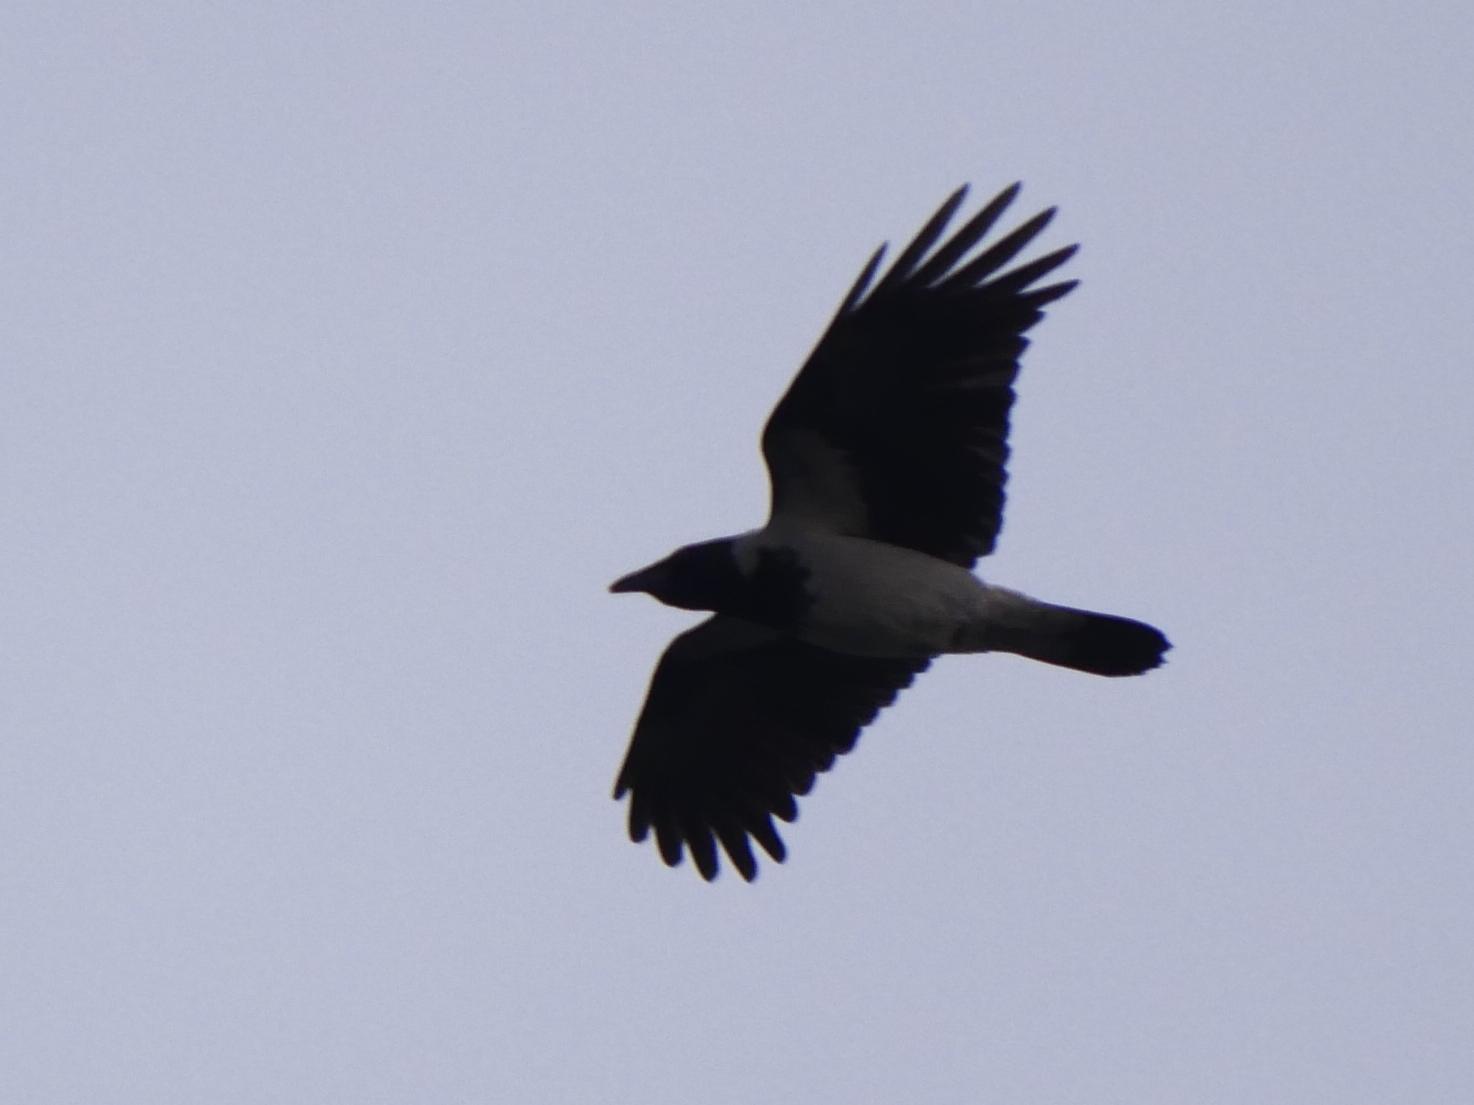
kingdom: Animalia
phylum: Chordata
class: Aves
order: Passeriformes
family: Corvidae
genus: Corvus
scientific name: Corvus cornix
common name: Hooded crow
